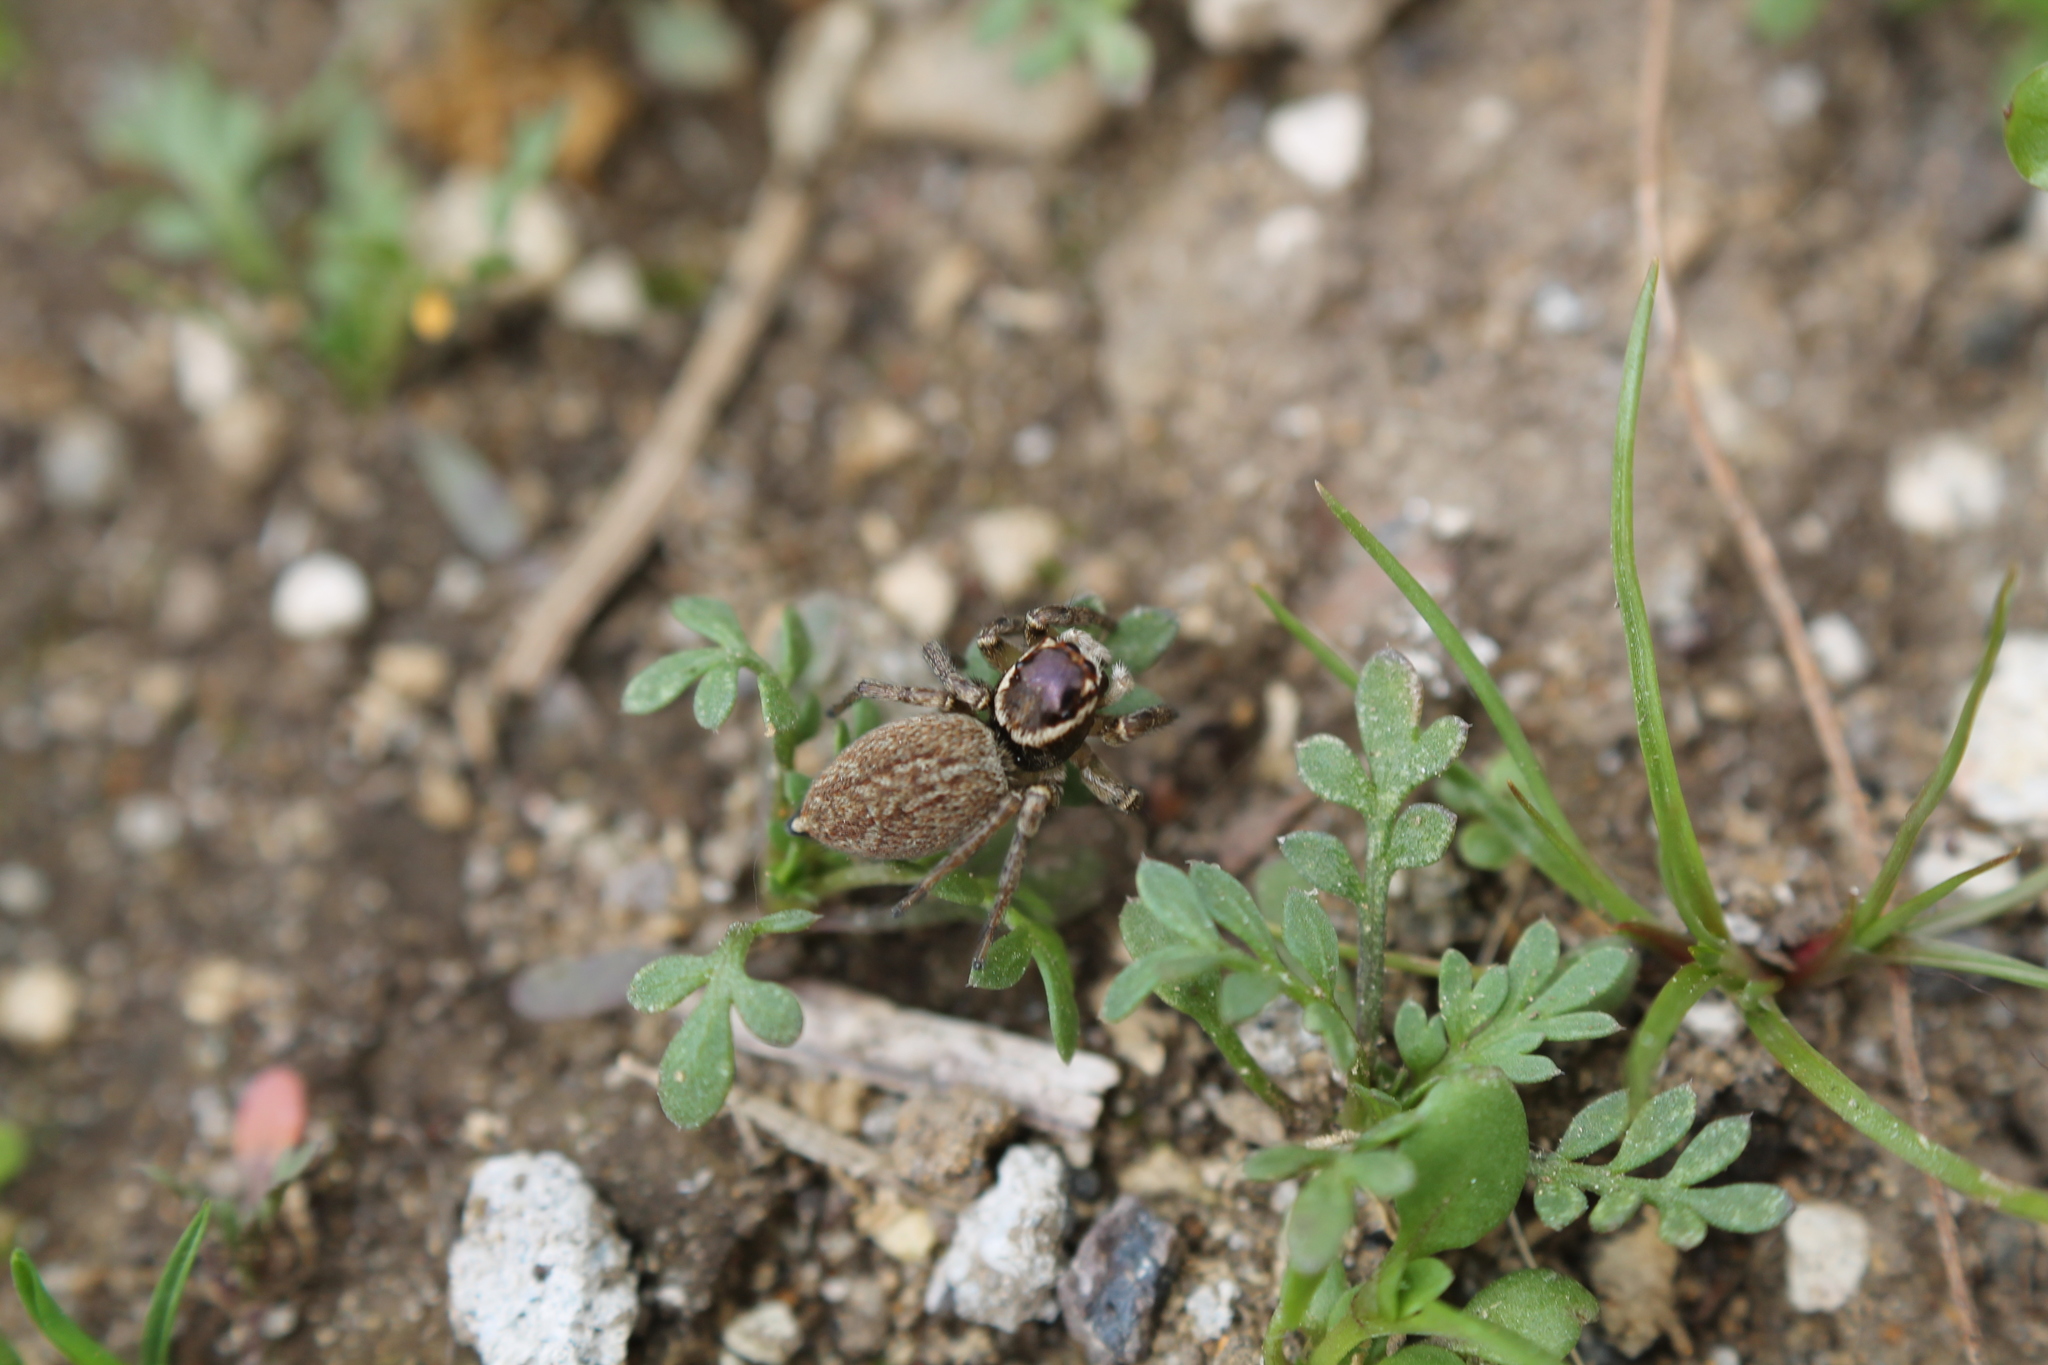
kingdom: Animalia
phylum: Arthropoda
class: Arachnida
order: Araneae
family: Salticidae
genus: Maratus
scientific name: Maratus griseus
